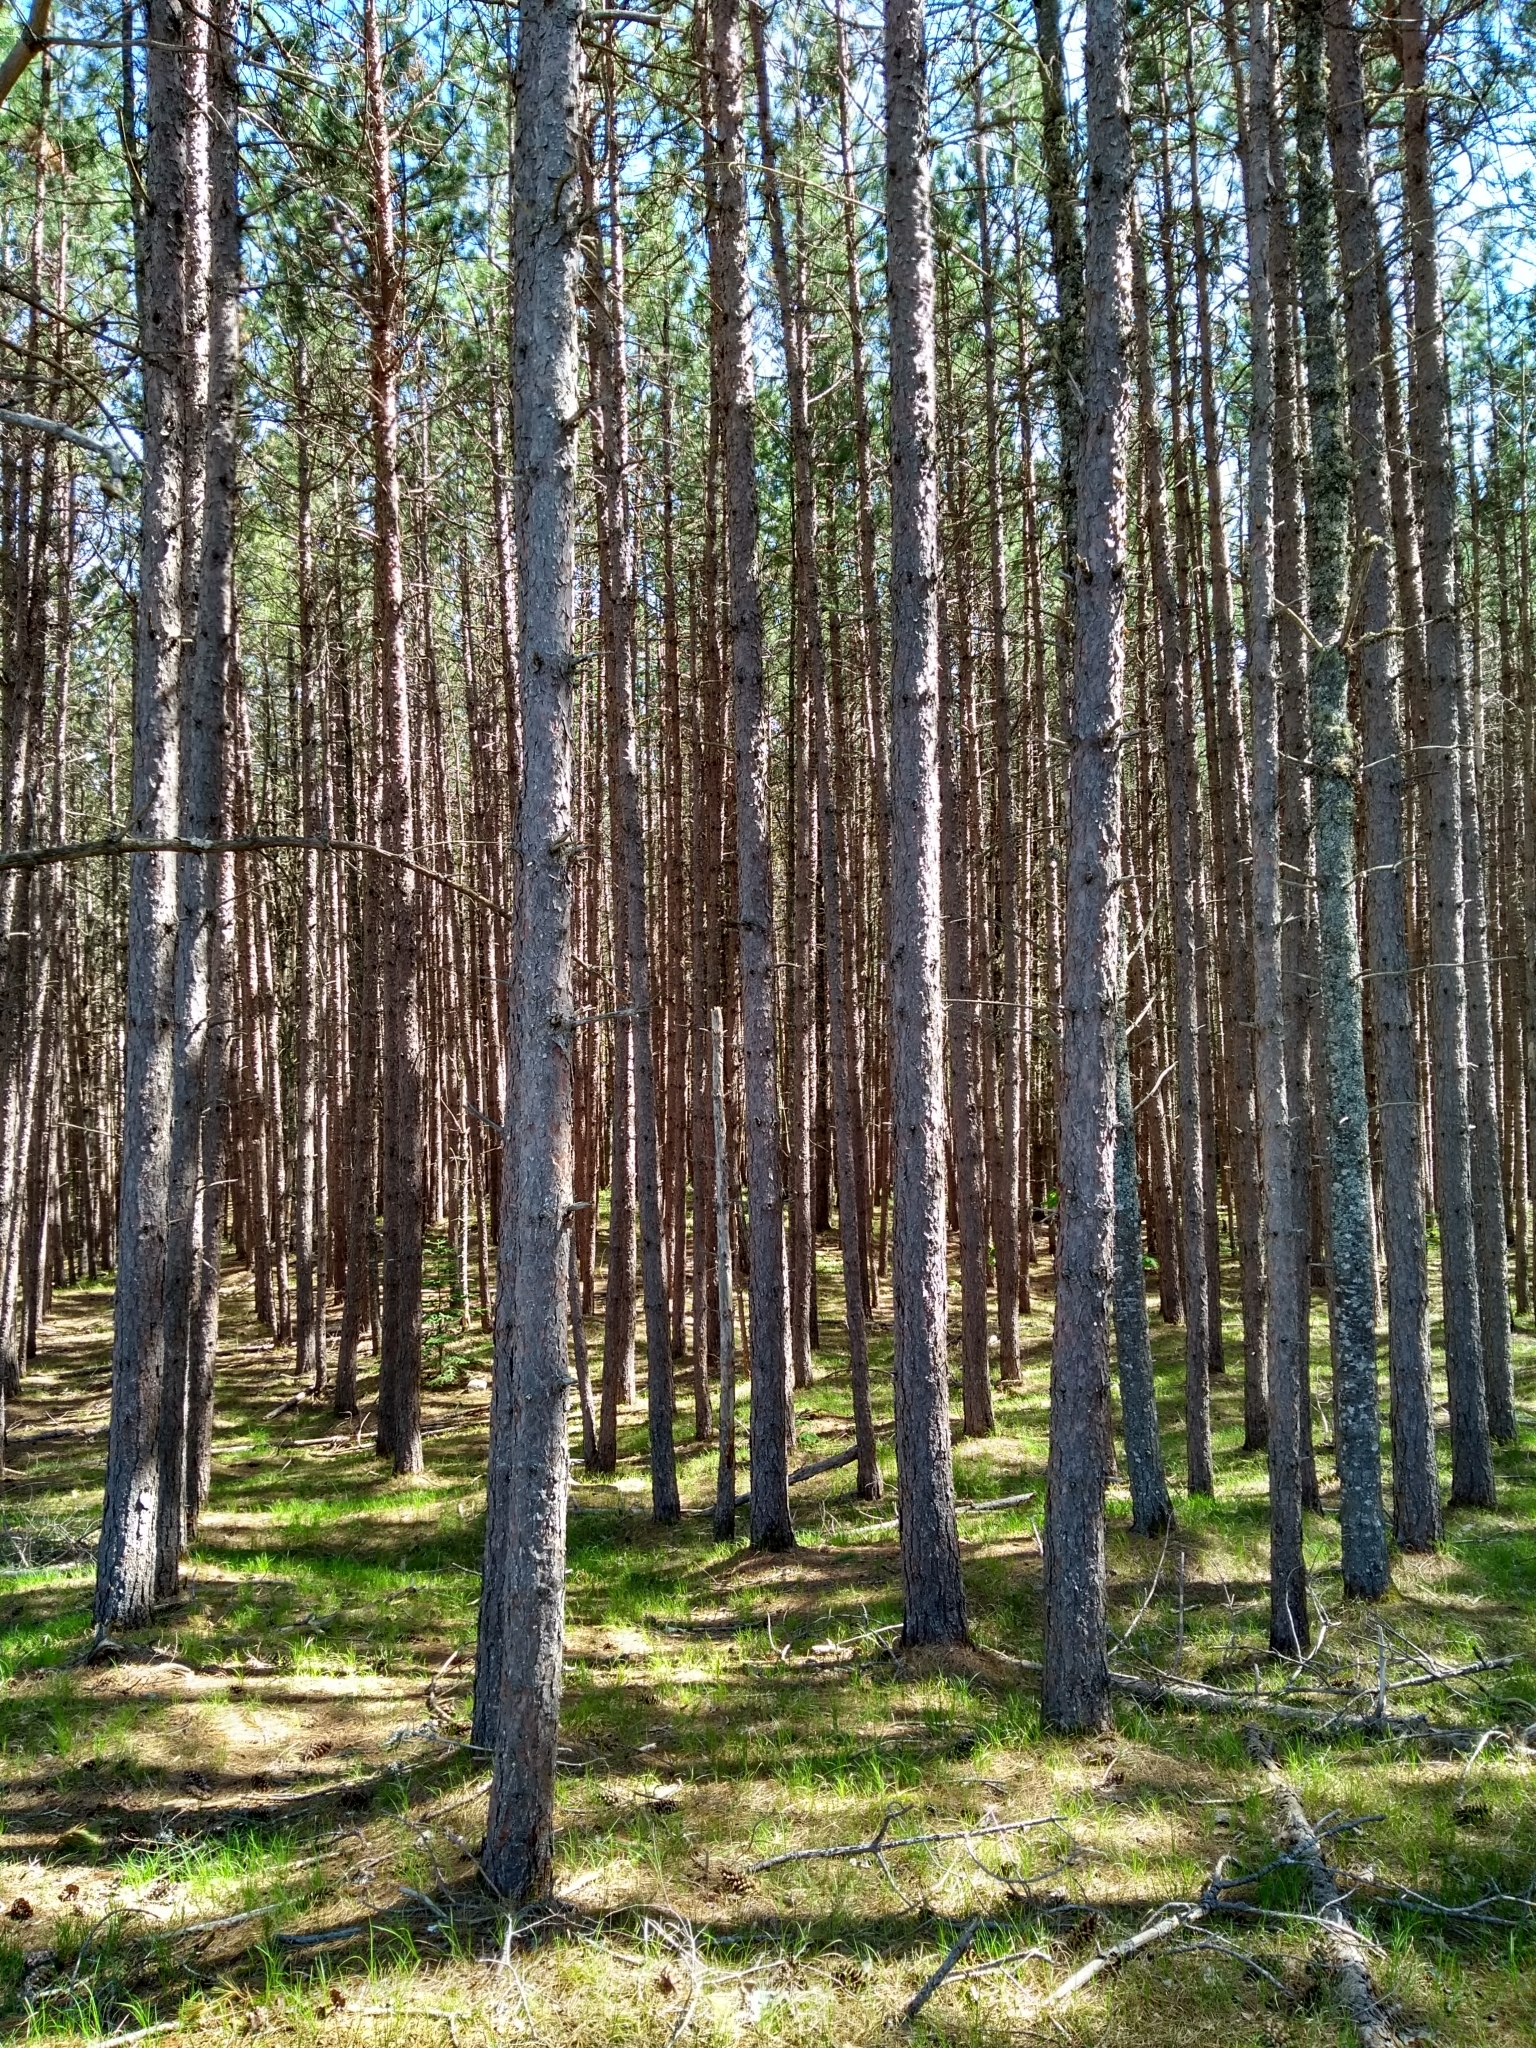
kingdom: Plantae
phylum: Tracheophyta
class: Pinopsida
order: Pinales
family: Pinaceae
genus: Pinus
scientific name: Pinus resinosa
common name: Norway pine
